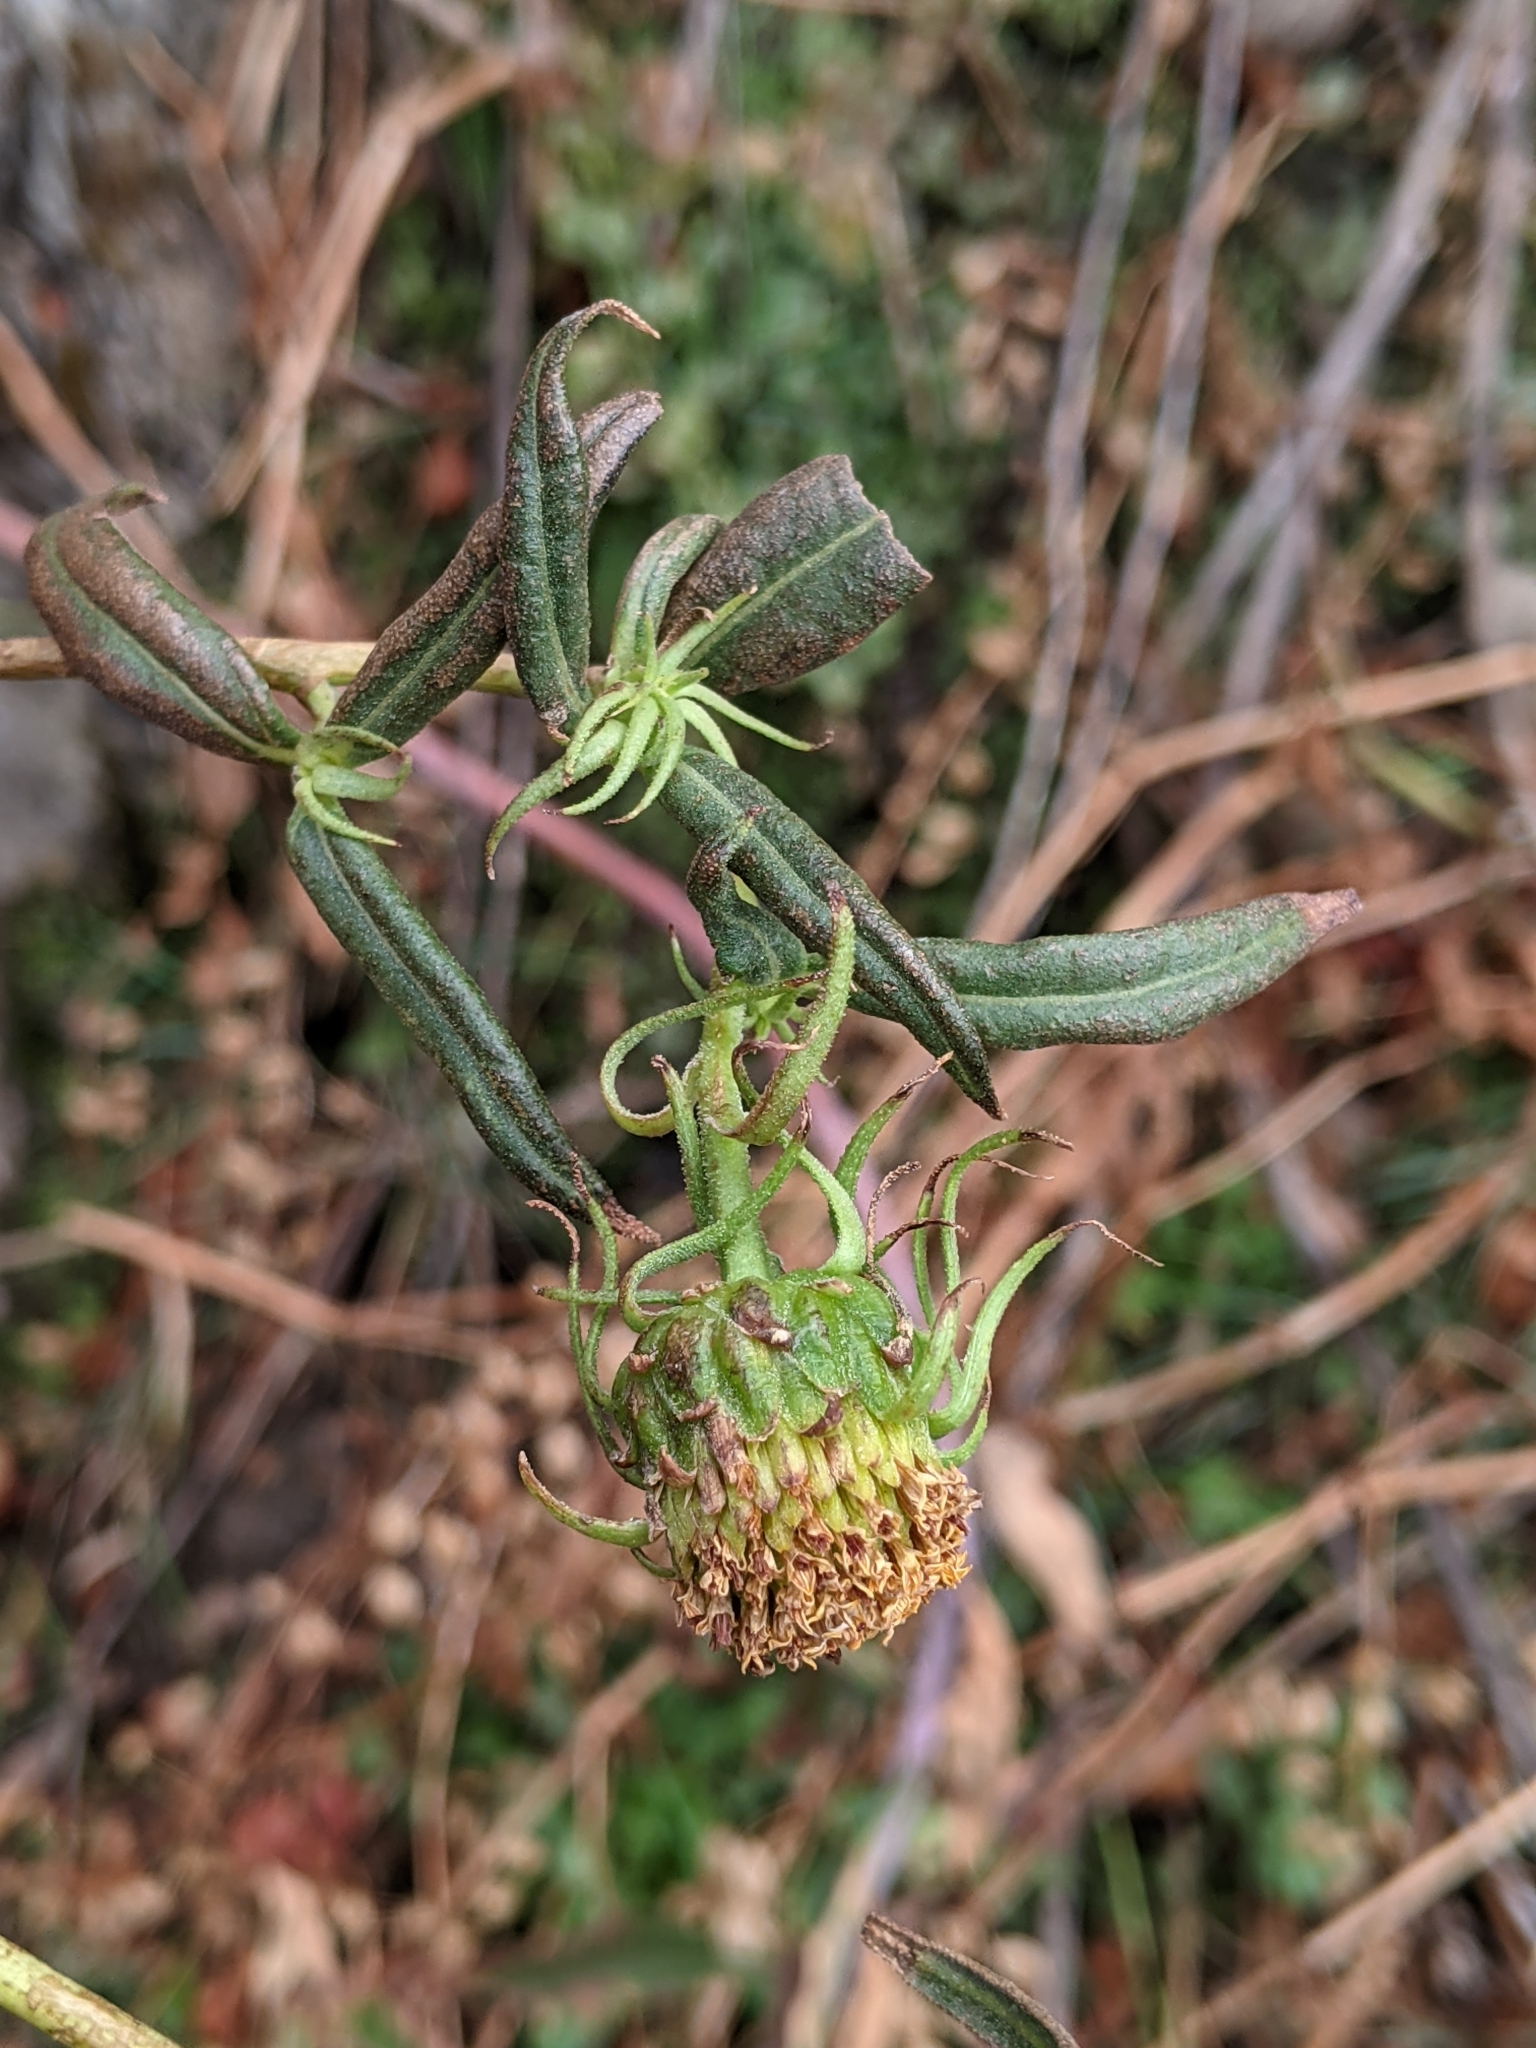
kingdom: Plantae
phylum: Tracheophyta
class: Magnoliopsida
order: Asterales
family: Asteraceae
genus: Helianthus
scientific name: Helianthus californicus
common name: California sunflower
